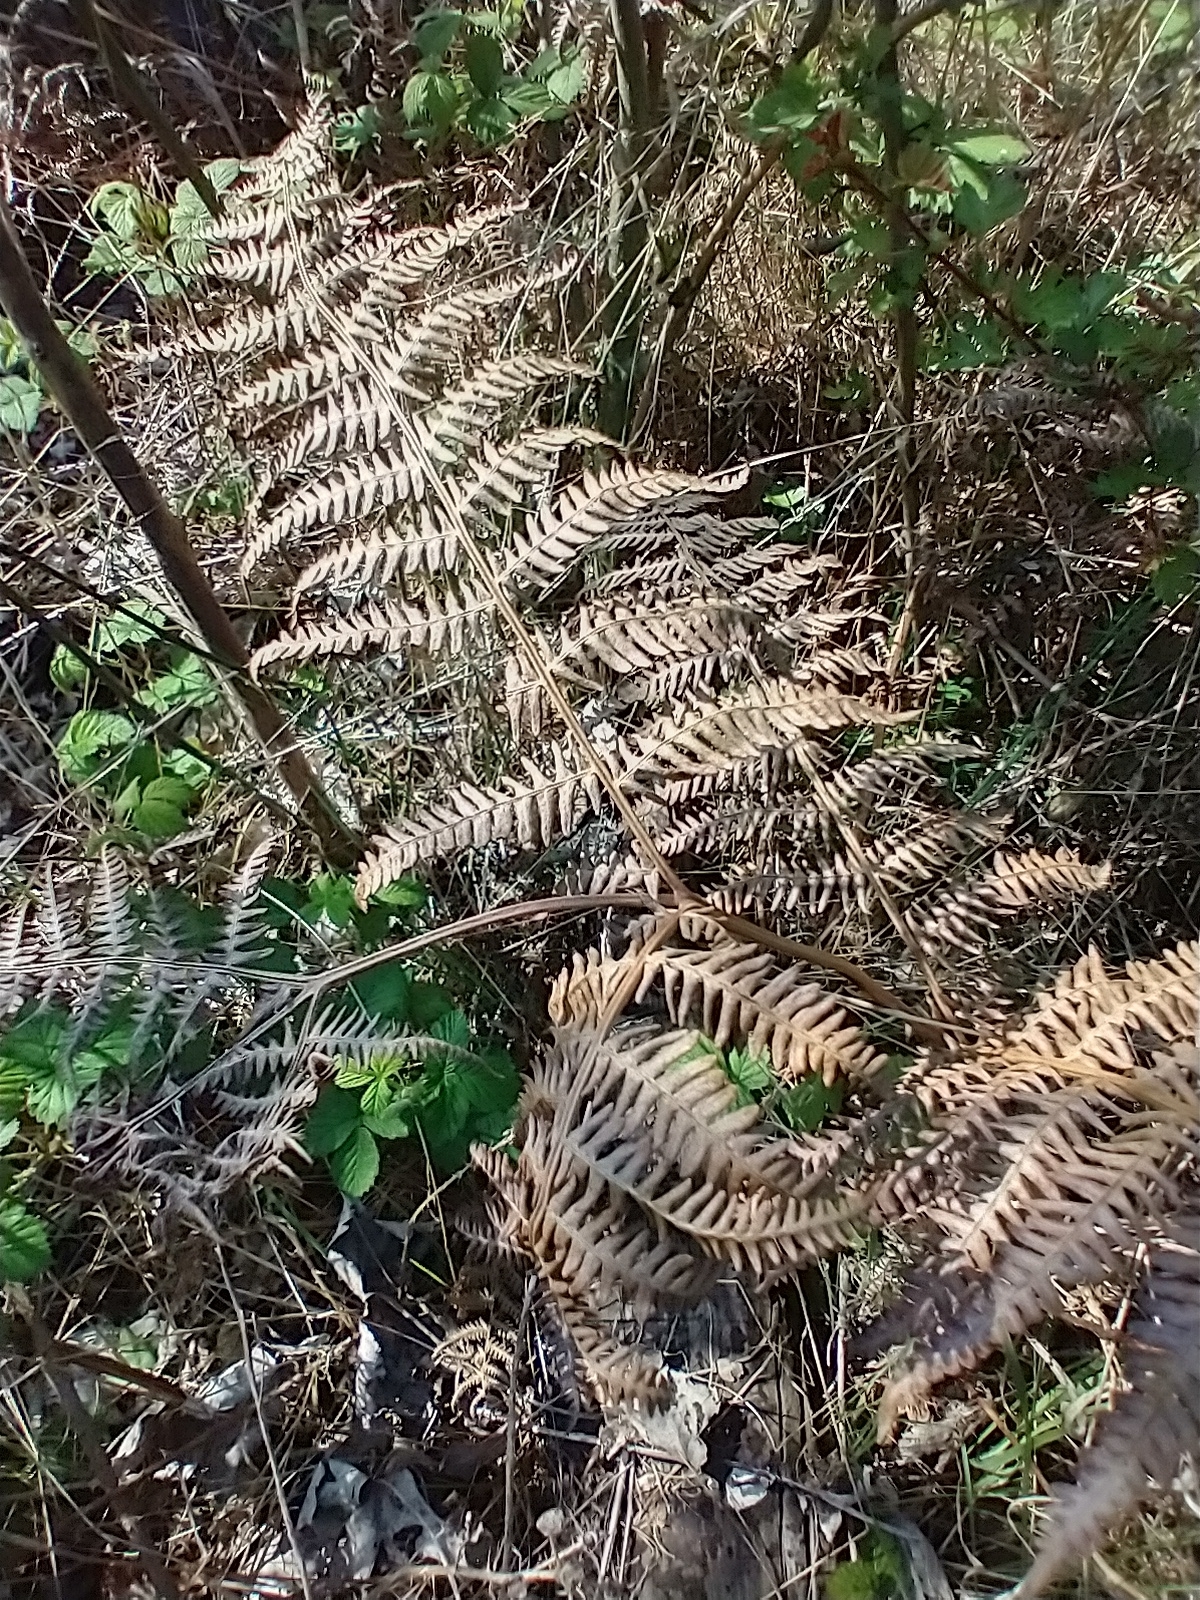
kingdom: Plantae
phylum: Tracheophyta
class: Polypodiopsida
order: Polypodiales
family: Dennstaedtiaceae
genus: Pteridium
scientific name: Pteridium aquilinum
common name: Bracken
